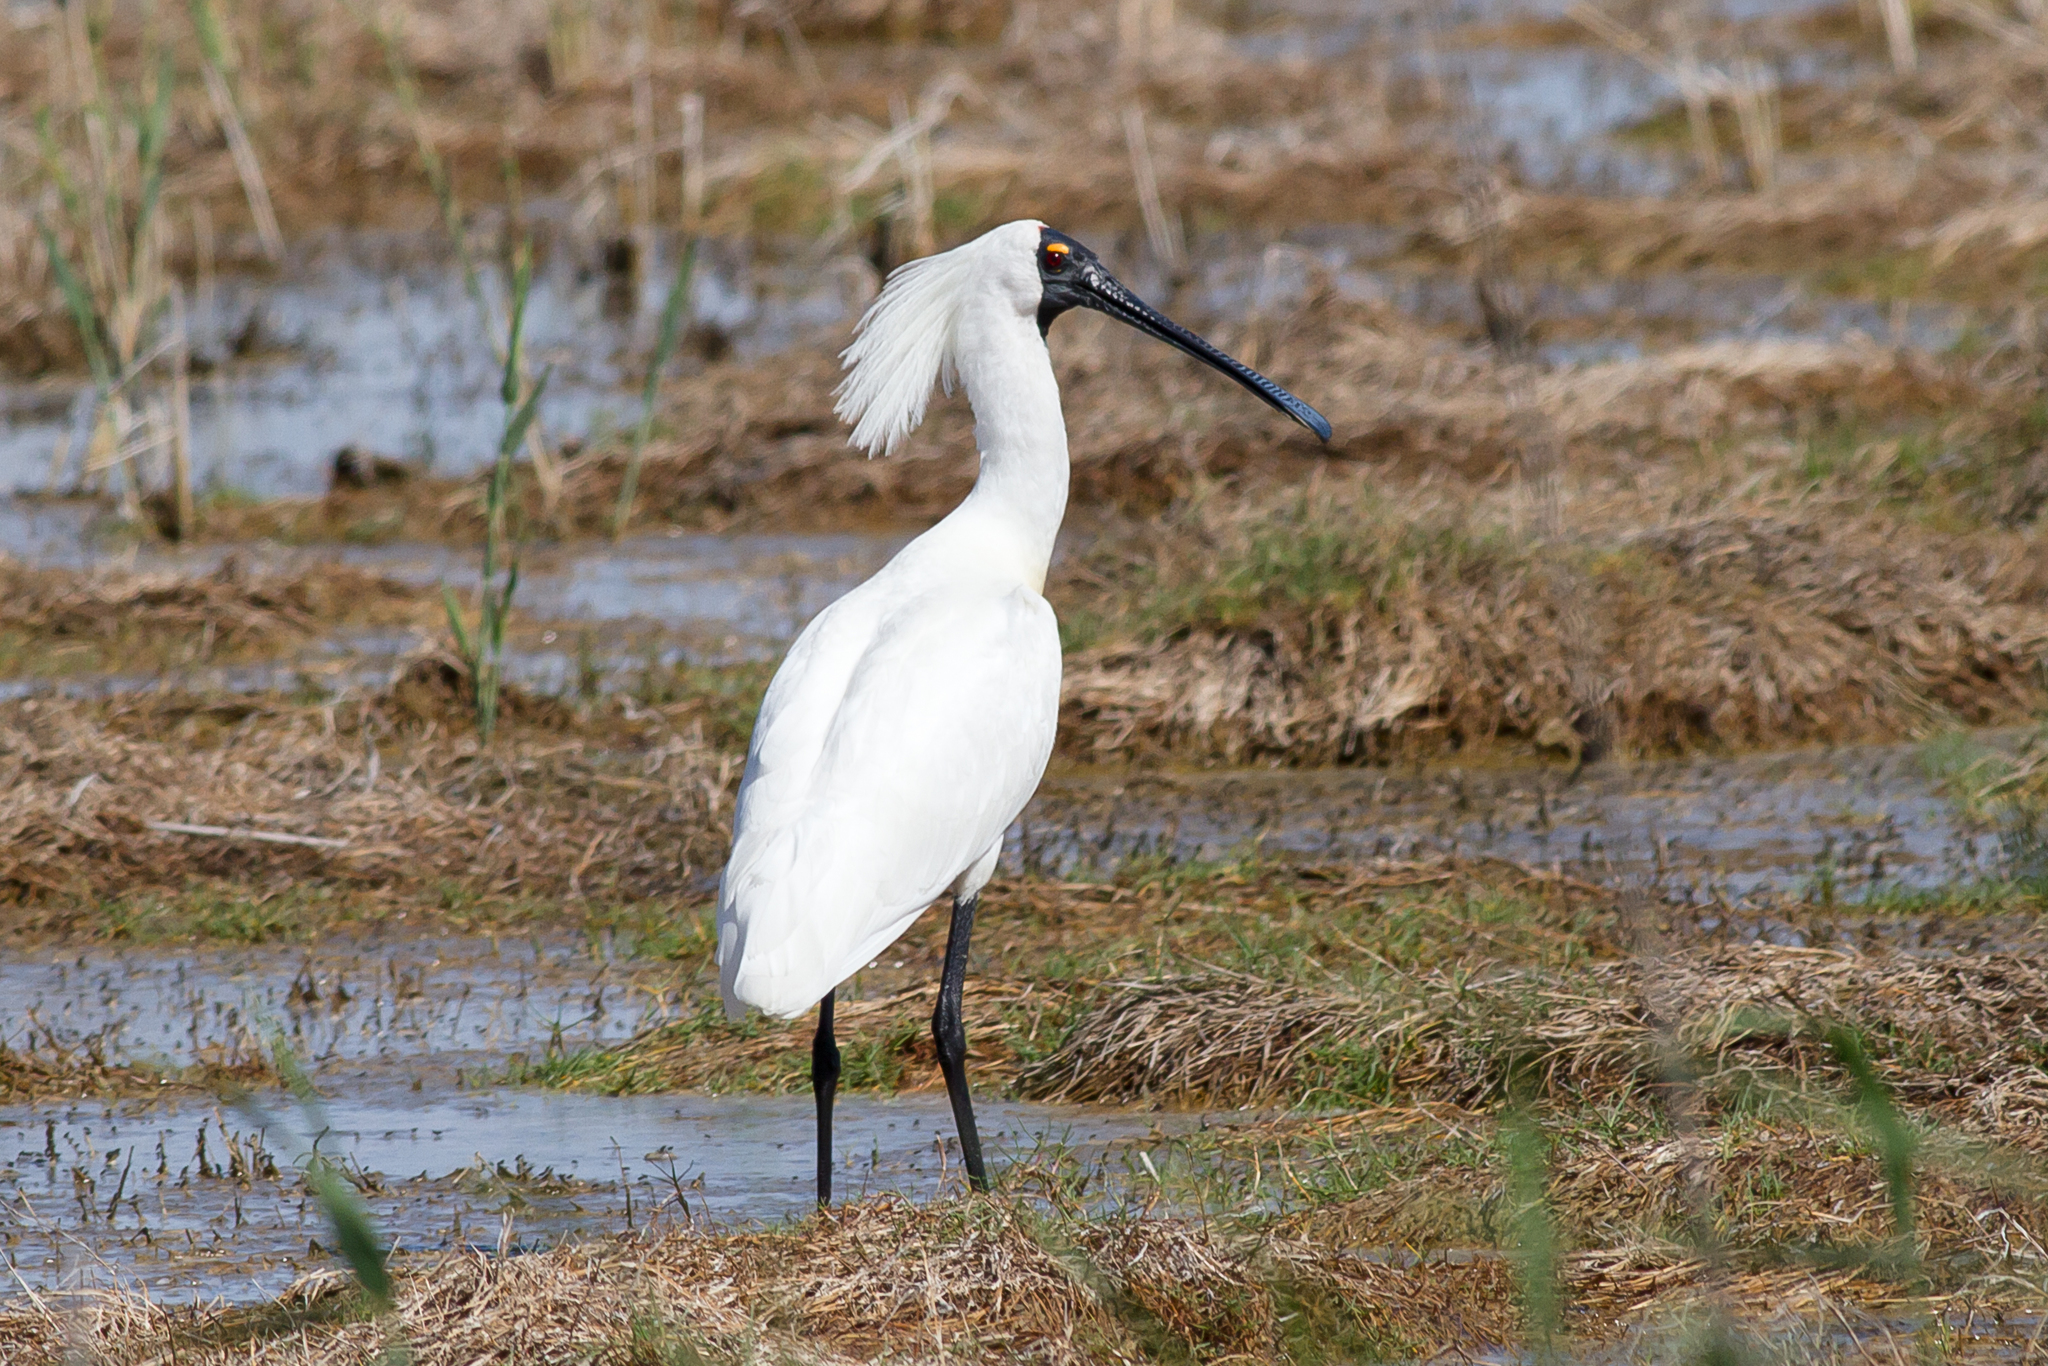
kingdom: Animalia
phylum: Chordata
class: Aves
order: Pelecaniformes
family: Threskiornithidae
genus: Platalea
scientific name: Platalea regia
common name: Royal spoonbill
